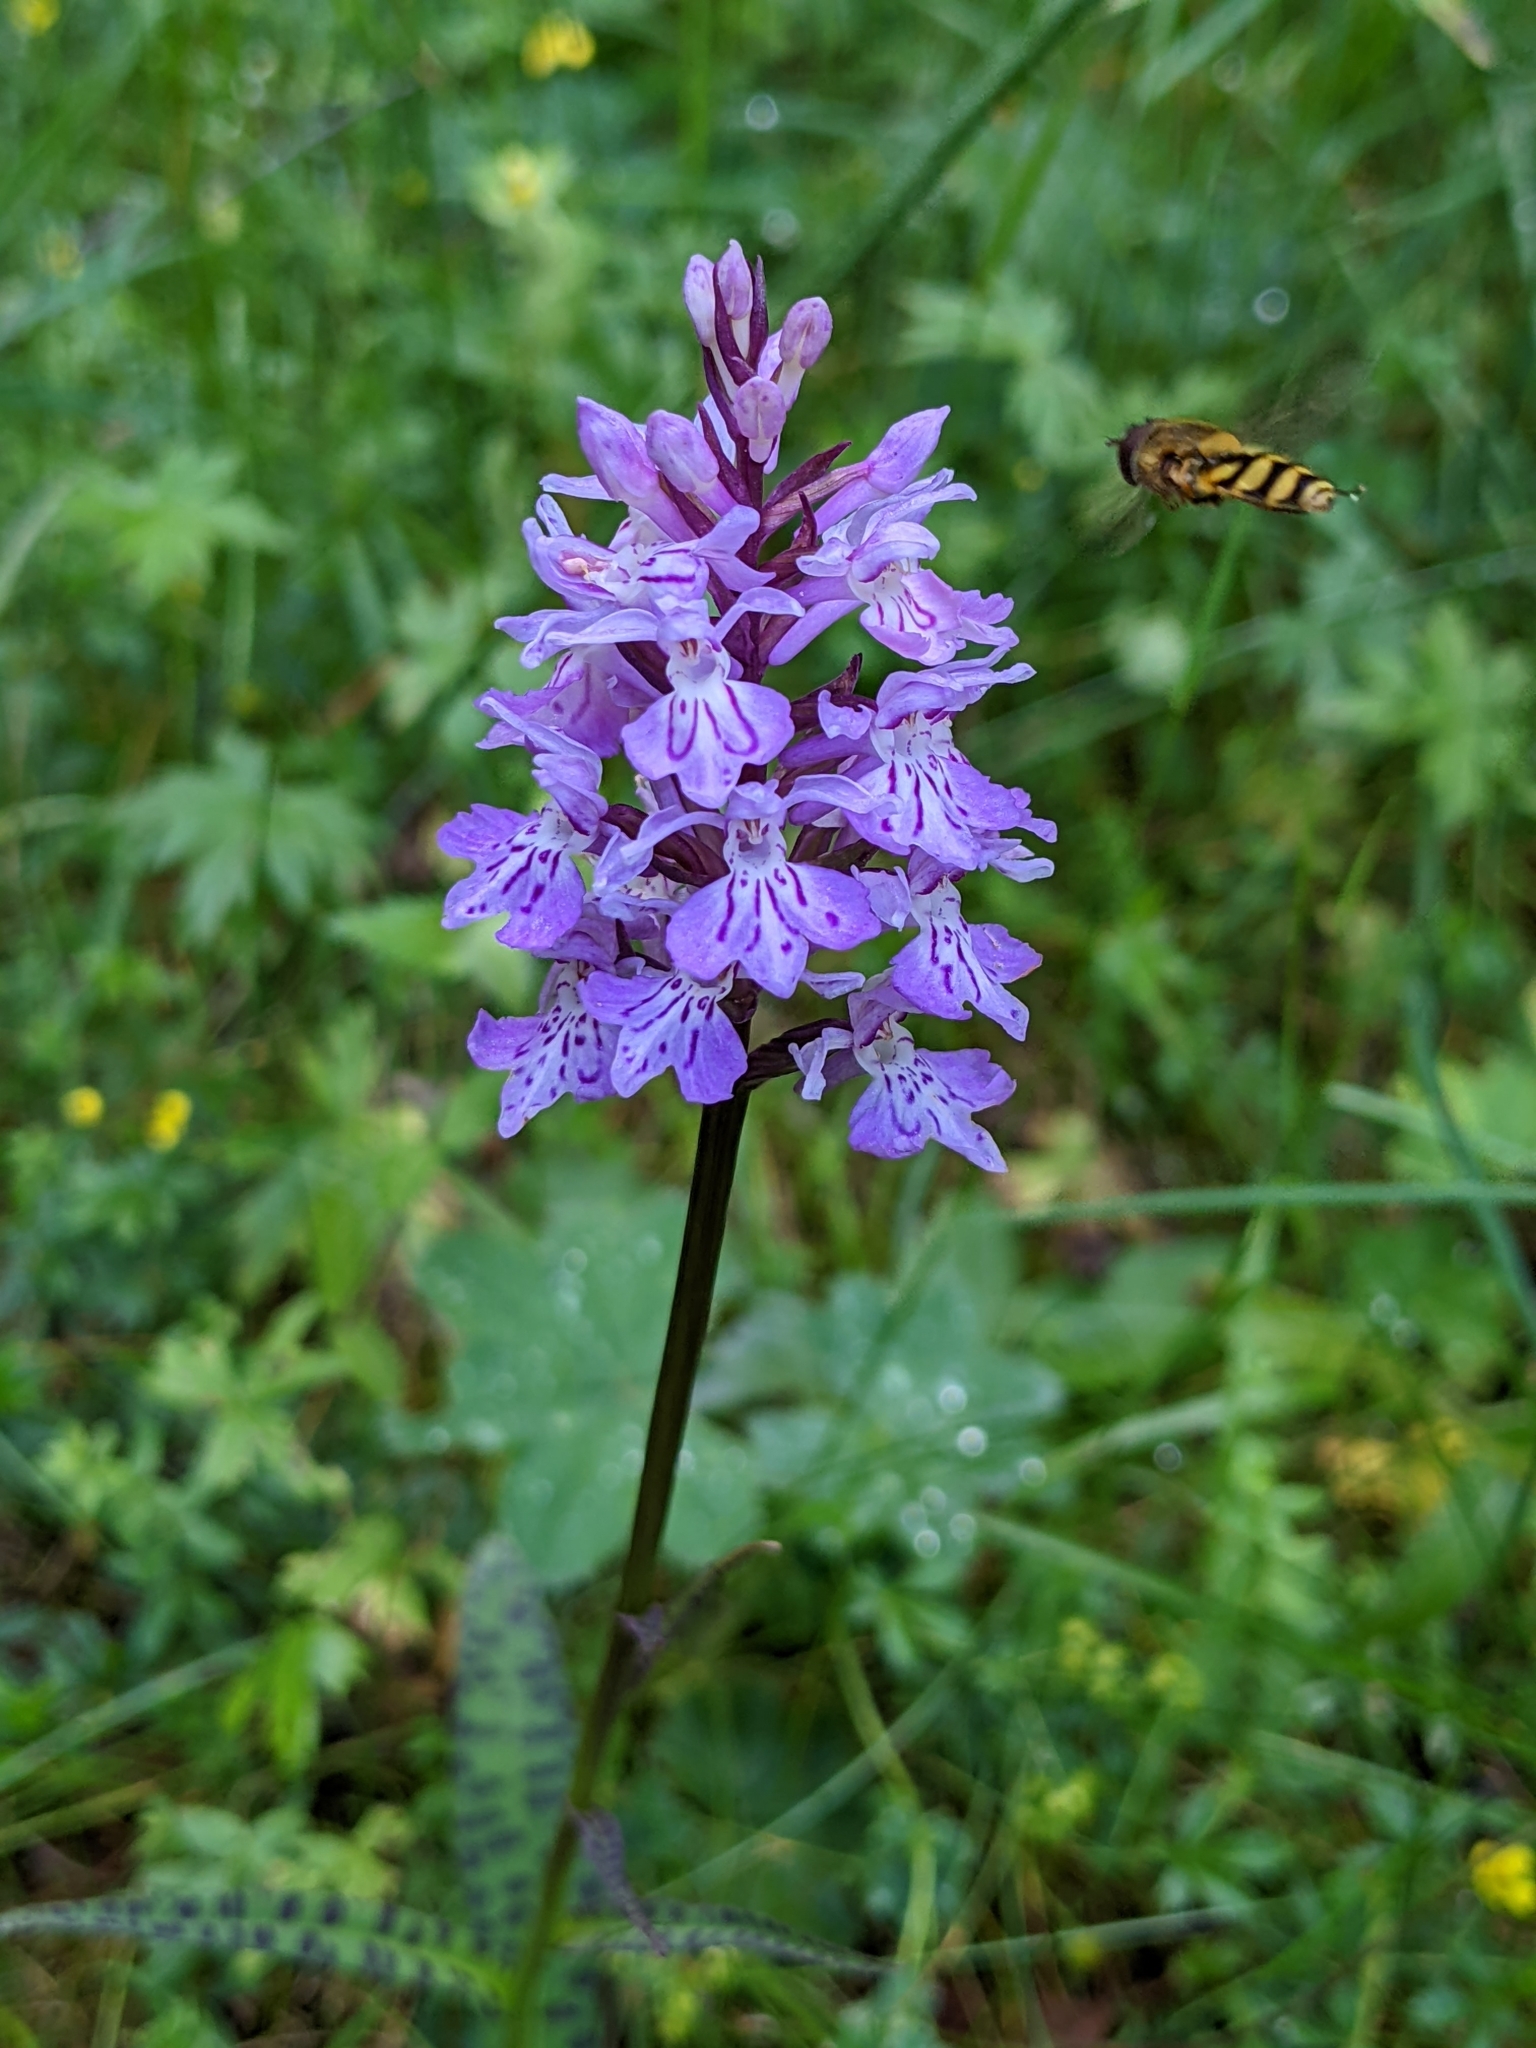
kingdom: Plantae
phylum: Tracheophyta
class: Liliopsida
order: Asparagales
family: Orchidaceae
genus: Dactylorhiza
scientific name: Dactylorhiza maculata
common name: Heath spotted-orchid
